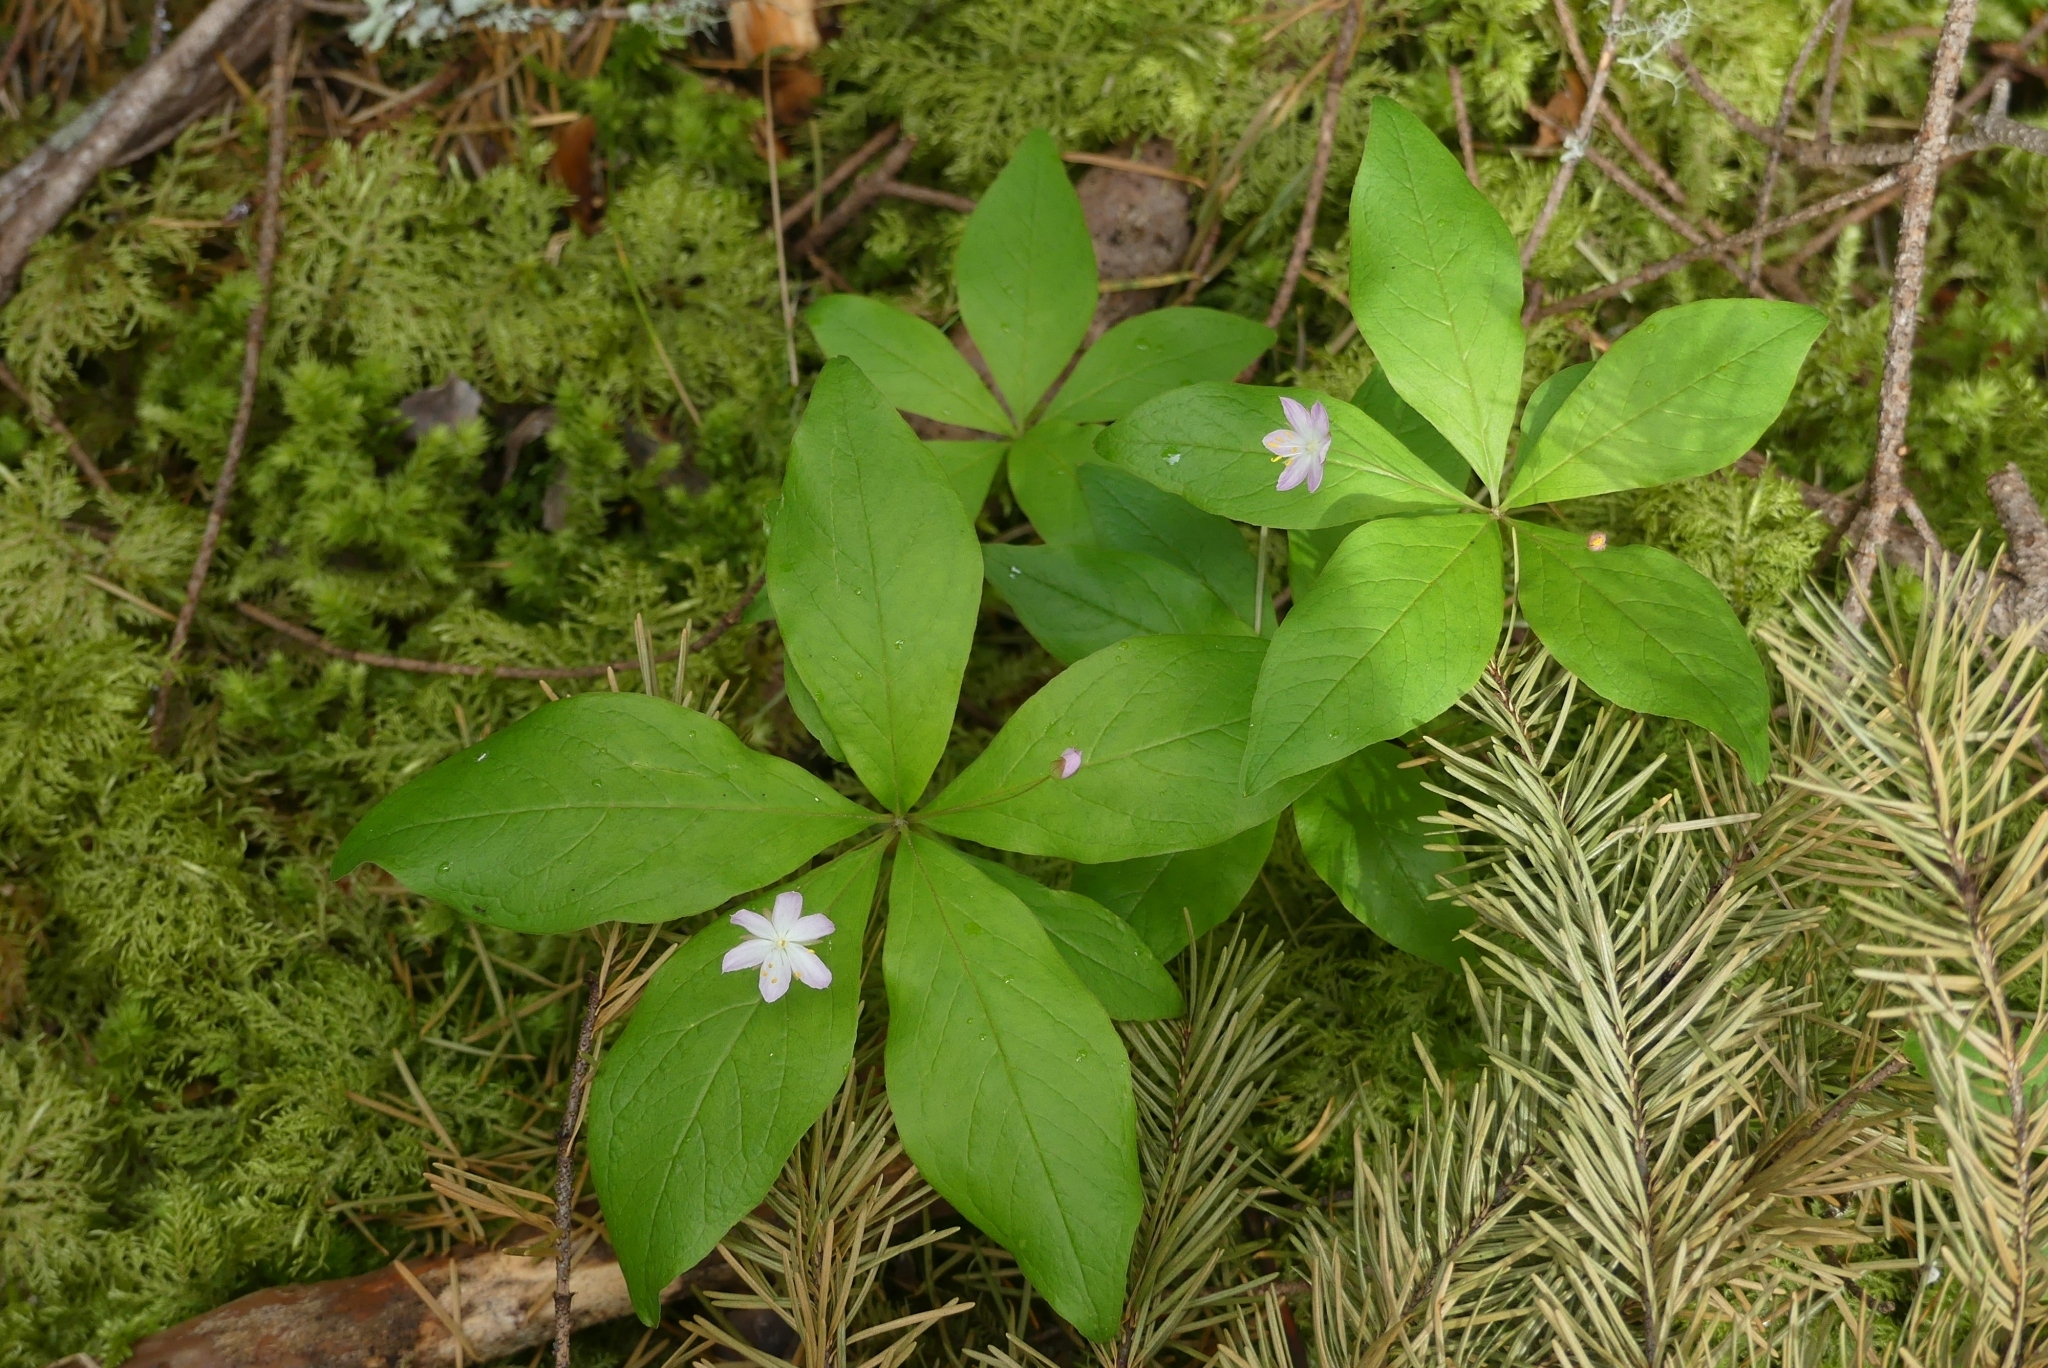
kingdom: Plantae
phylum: Tracheophyta
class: Magnoliopsida
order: Ericales
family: Primulaceae
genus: Lysimachia
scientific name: Lysimachia latifolia
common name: Pacific starflower
